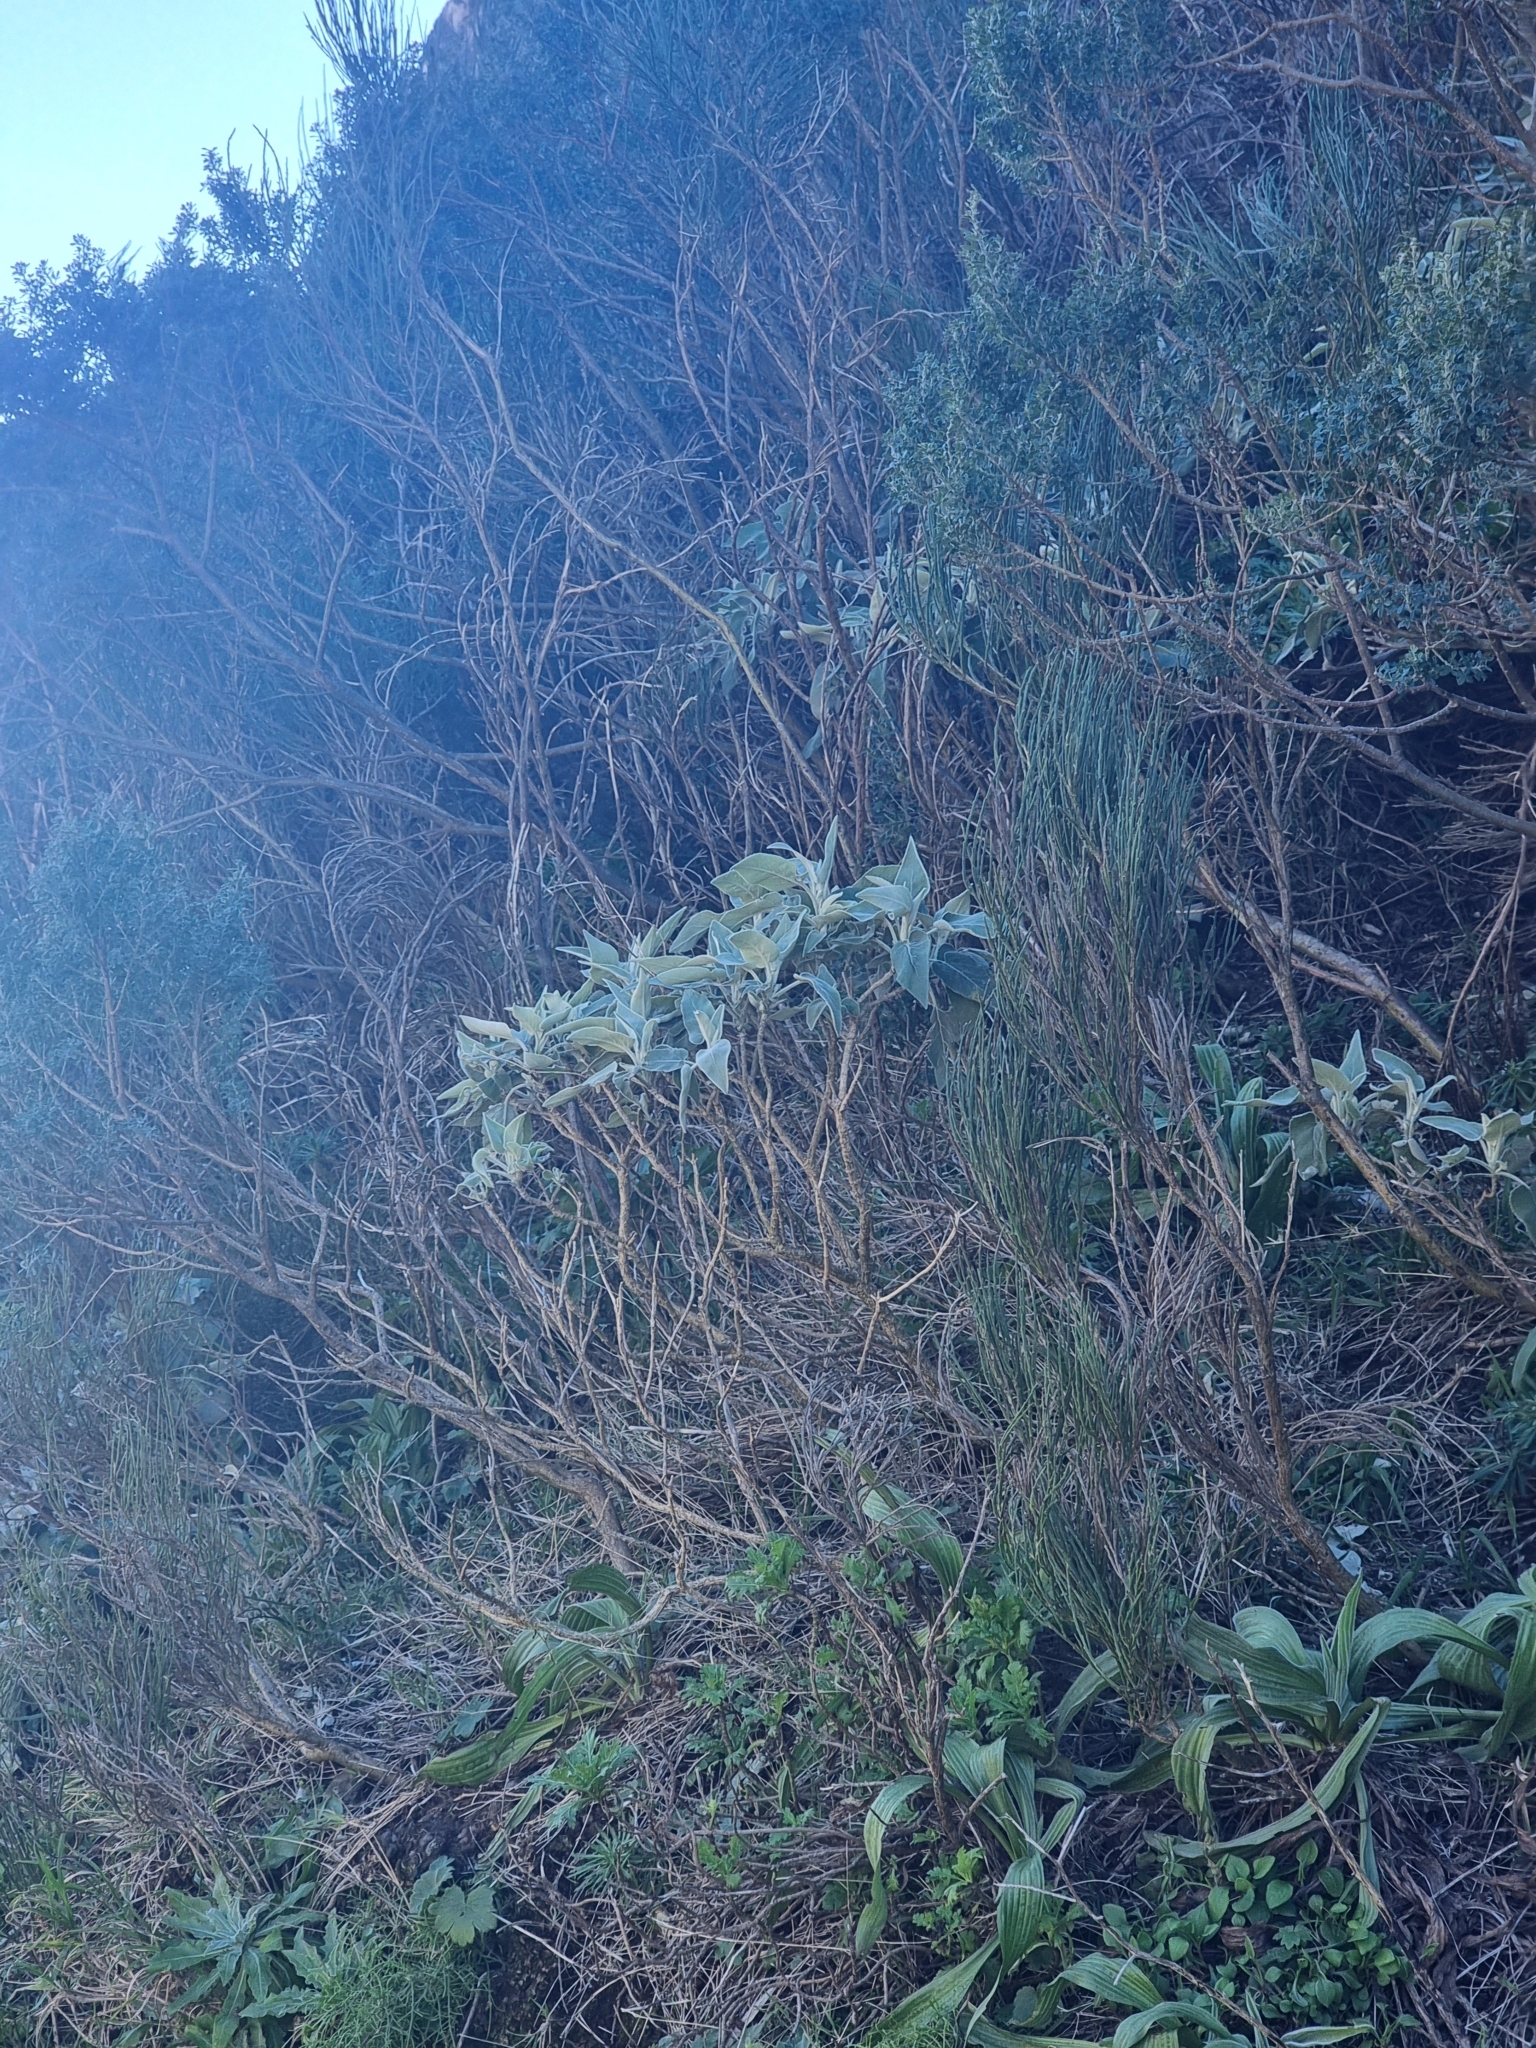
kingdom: Plantae
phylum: Tracheophyta
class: Magnoliopsida
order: Lamiales
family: Lamiaceae
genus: Sideritis
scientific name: Sideritis candicans
